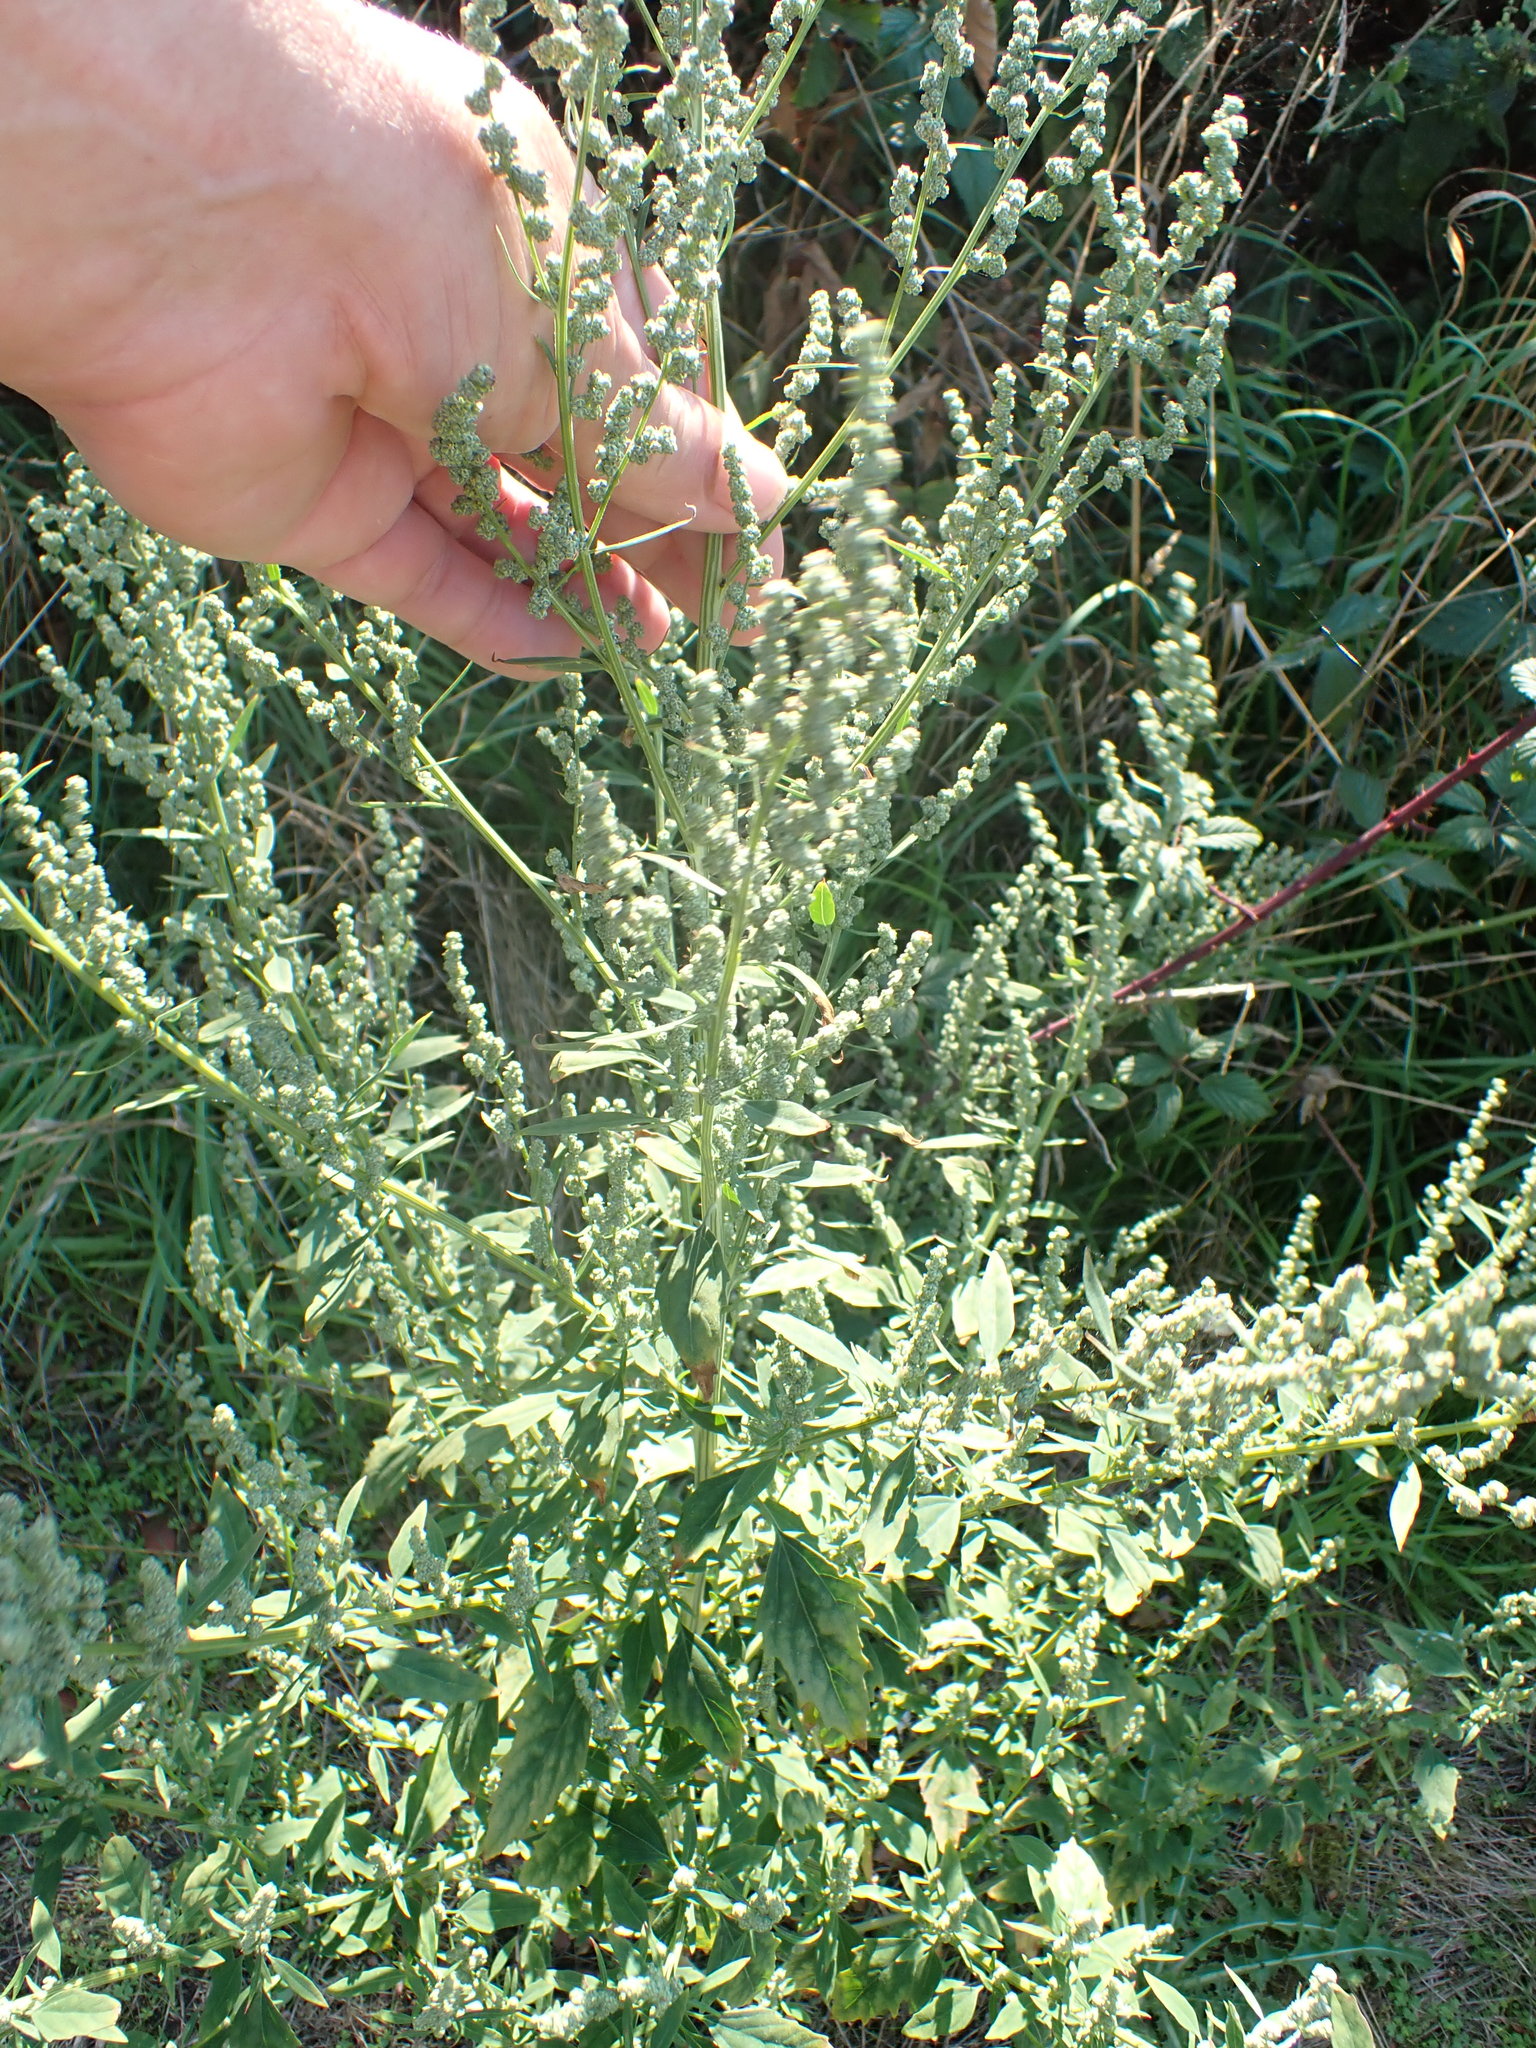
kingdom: Plantae
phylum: Tracheophyta
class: Magnoliopsida
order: Caryophyllales
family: Amaranthaceae
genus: Chenopodium
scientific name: Chenopodium album
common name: Fat-hen
